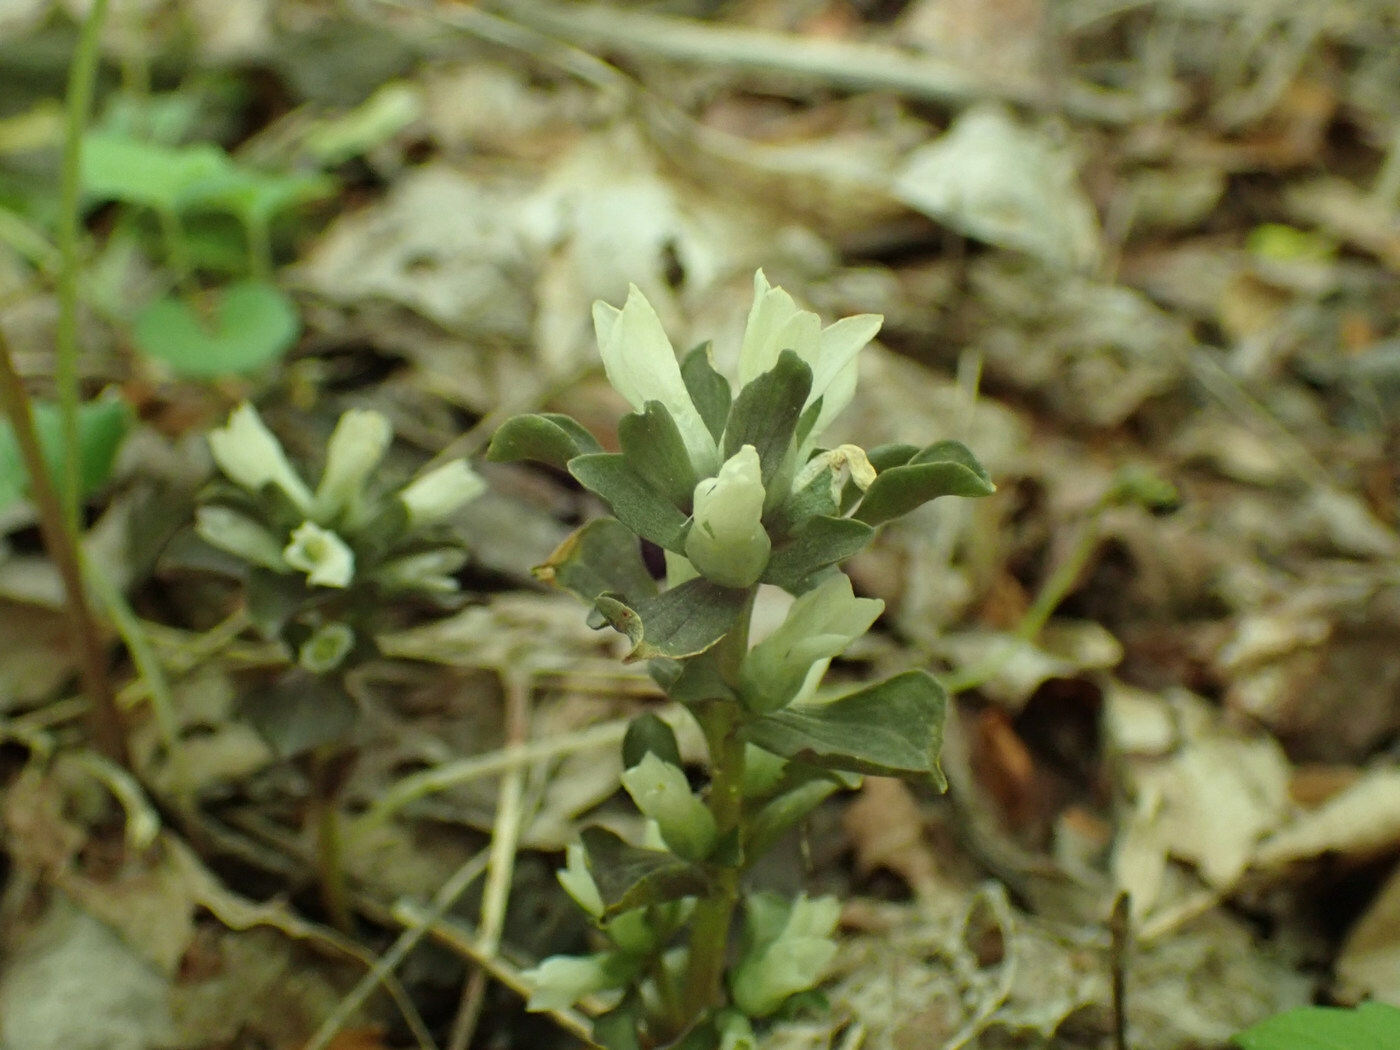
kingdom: Plantae
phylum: Tracheophyta
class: Magnoliopsida
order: Gentianales
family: Gentianaceae
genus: Obolaria
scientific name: Obolaria virginica
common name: Pennywort
